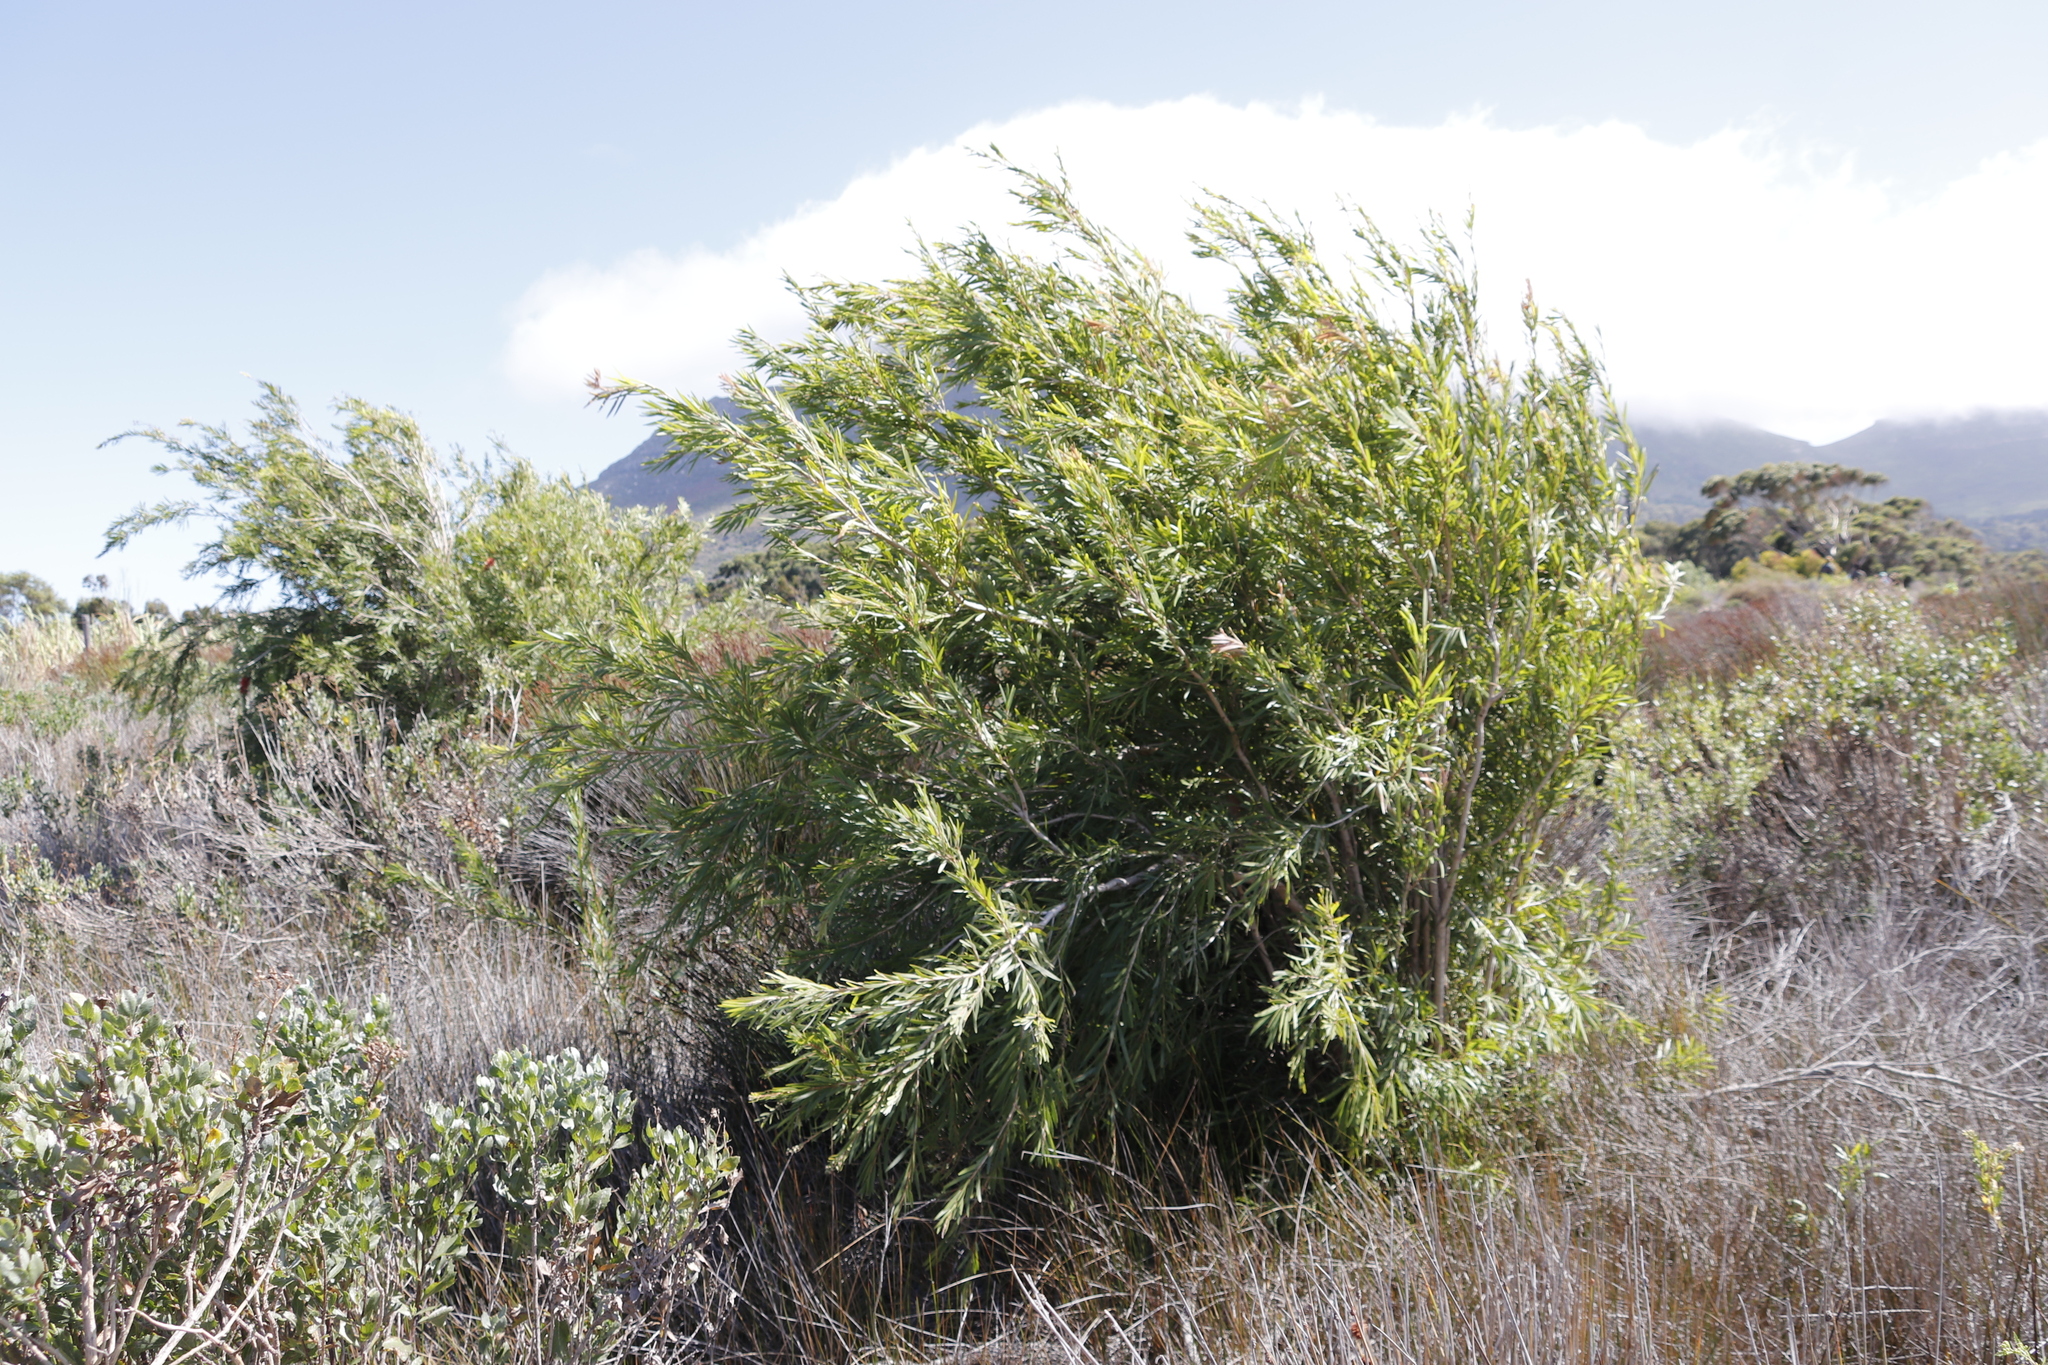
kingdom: Plantae
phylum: Tracheophyta
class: Magnoliopsida
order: Myrtales
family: Myrtaceae
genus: Callistemon
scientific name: Callistemon viminalis
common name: Drooping bottlebrush
